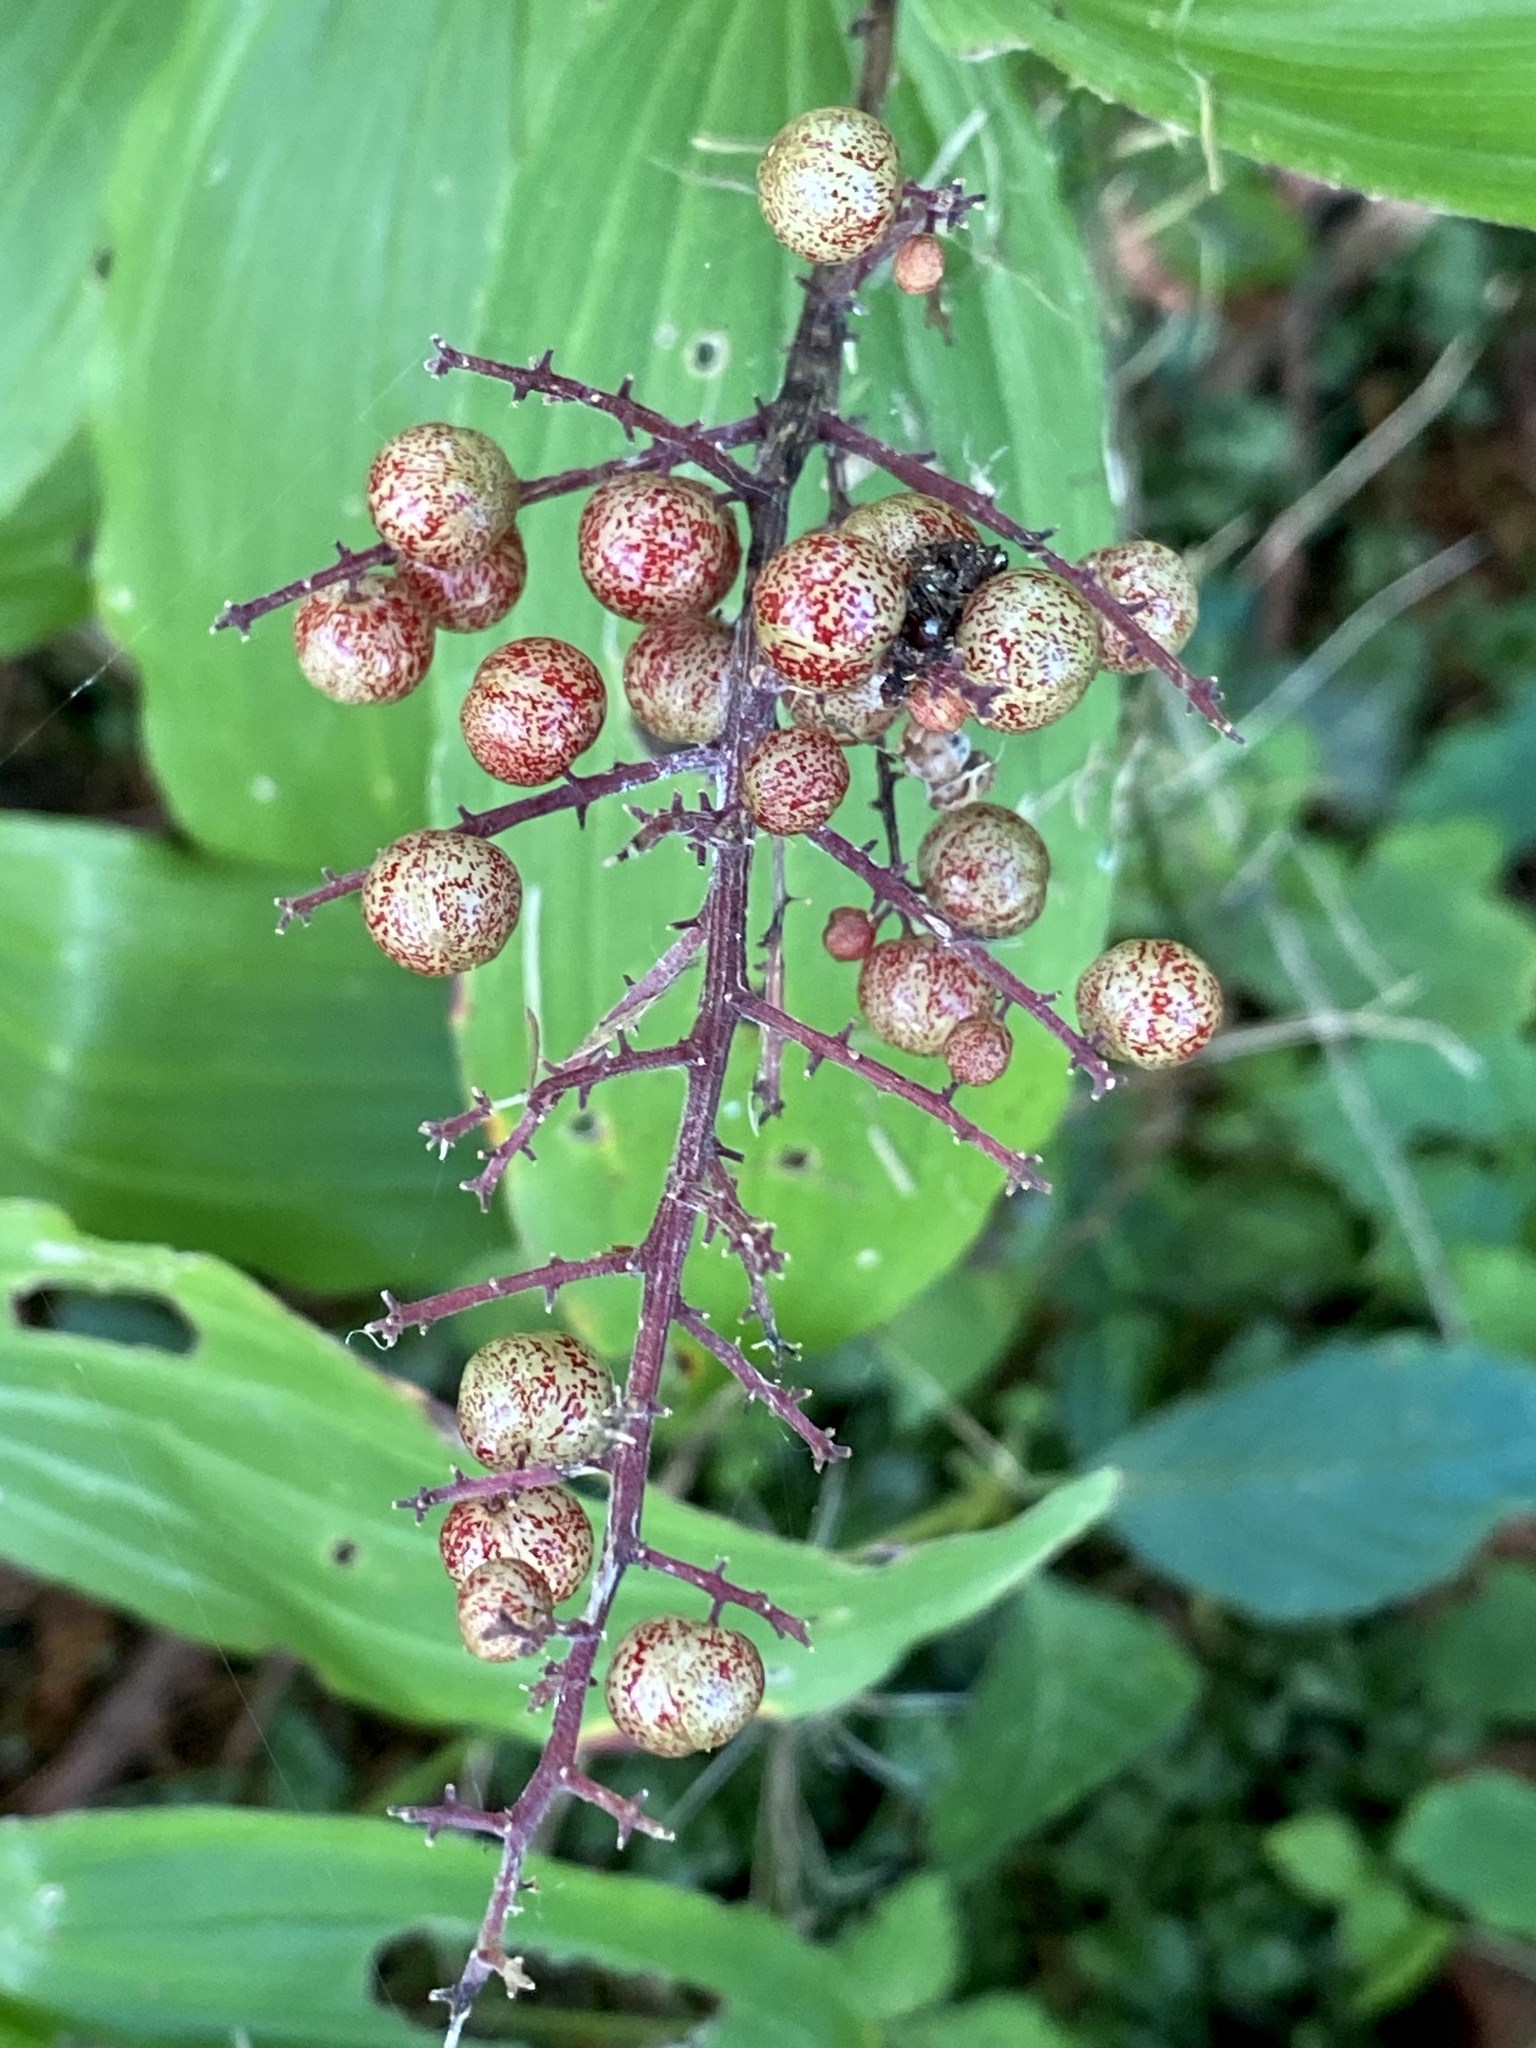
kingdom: Plantae
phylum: Tracheophyta
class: Liliopsida
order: Asparagales
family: Asparagaceae
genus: Maianthemum
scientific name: Maianthemum racemosum
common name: False spikenard
